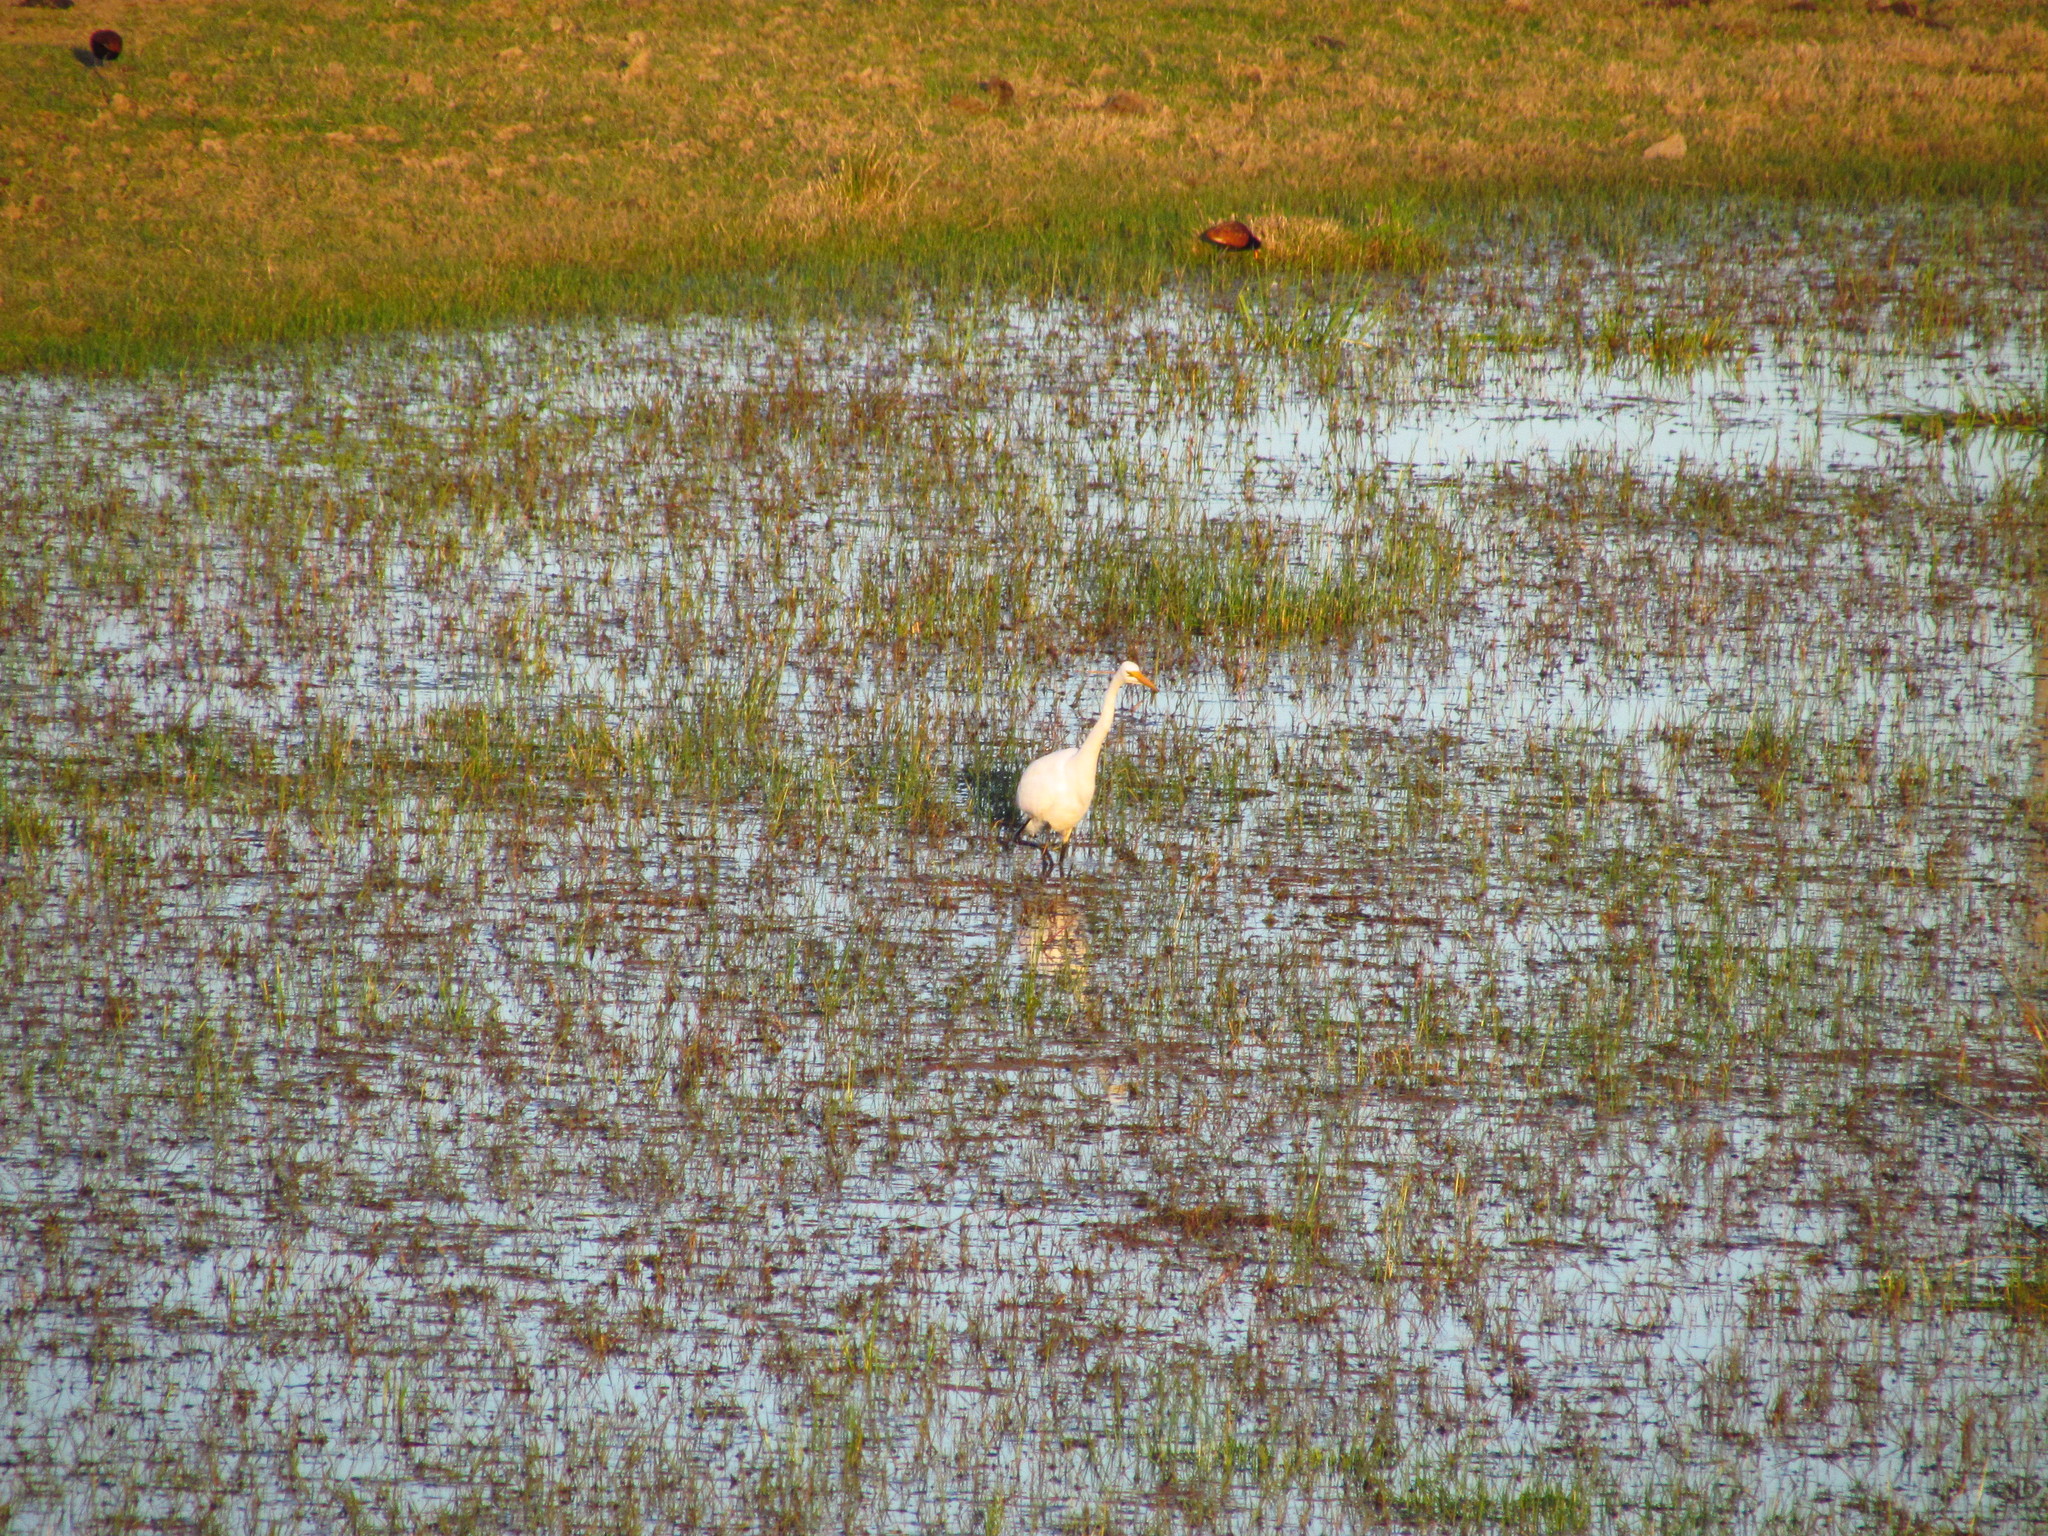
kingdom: Animalia
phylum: Chordata
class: Aves
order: Pelecaniformes
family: Ardeidae
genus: Ardea
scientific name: Ardea alba
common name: Great egret
